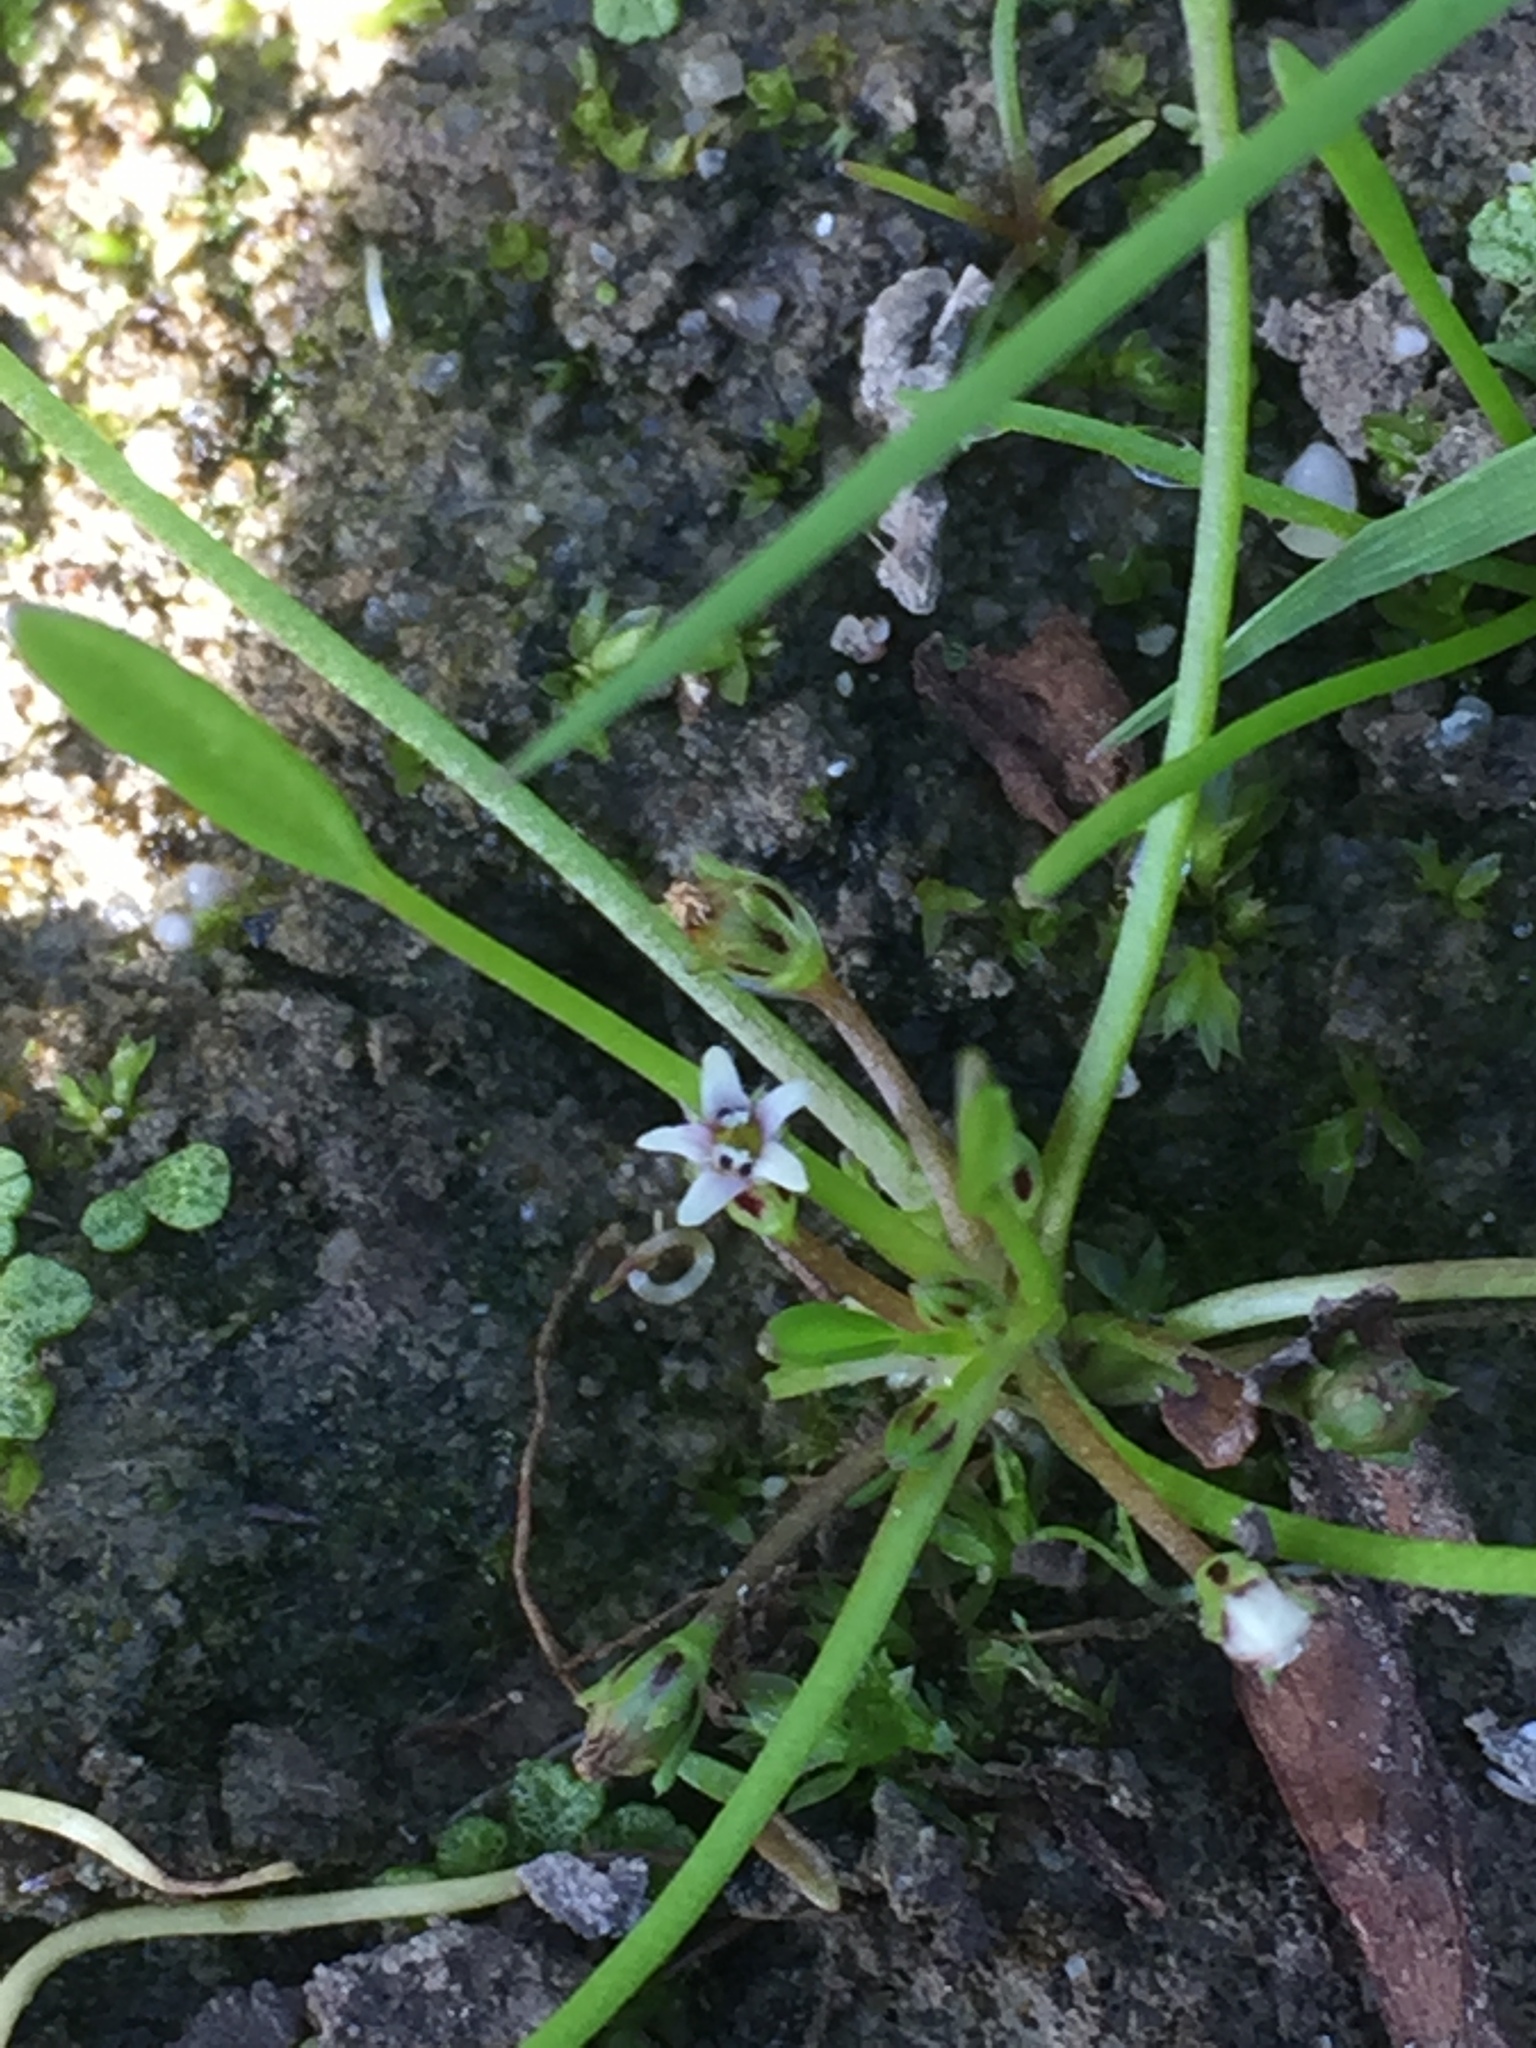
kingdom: Plantae
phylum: Tracheophyta
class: Magnoliopsida
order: Lamiales
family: Scrophulariaceae
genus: Limosella
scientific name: Limosella aquatica
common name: Mudwort
